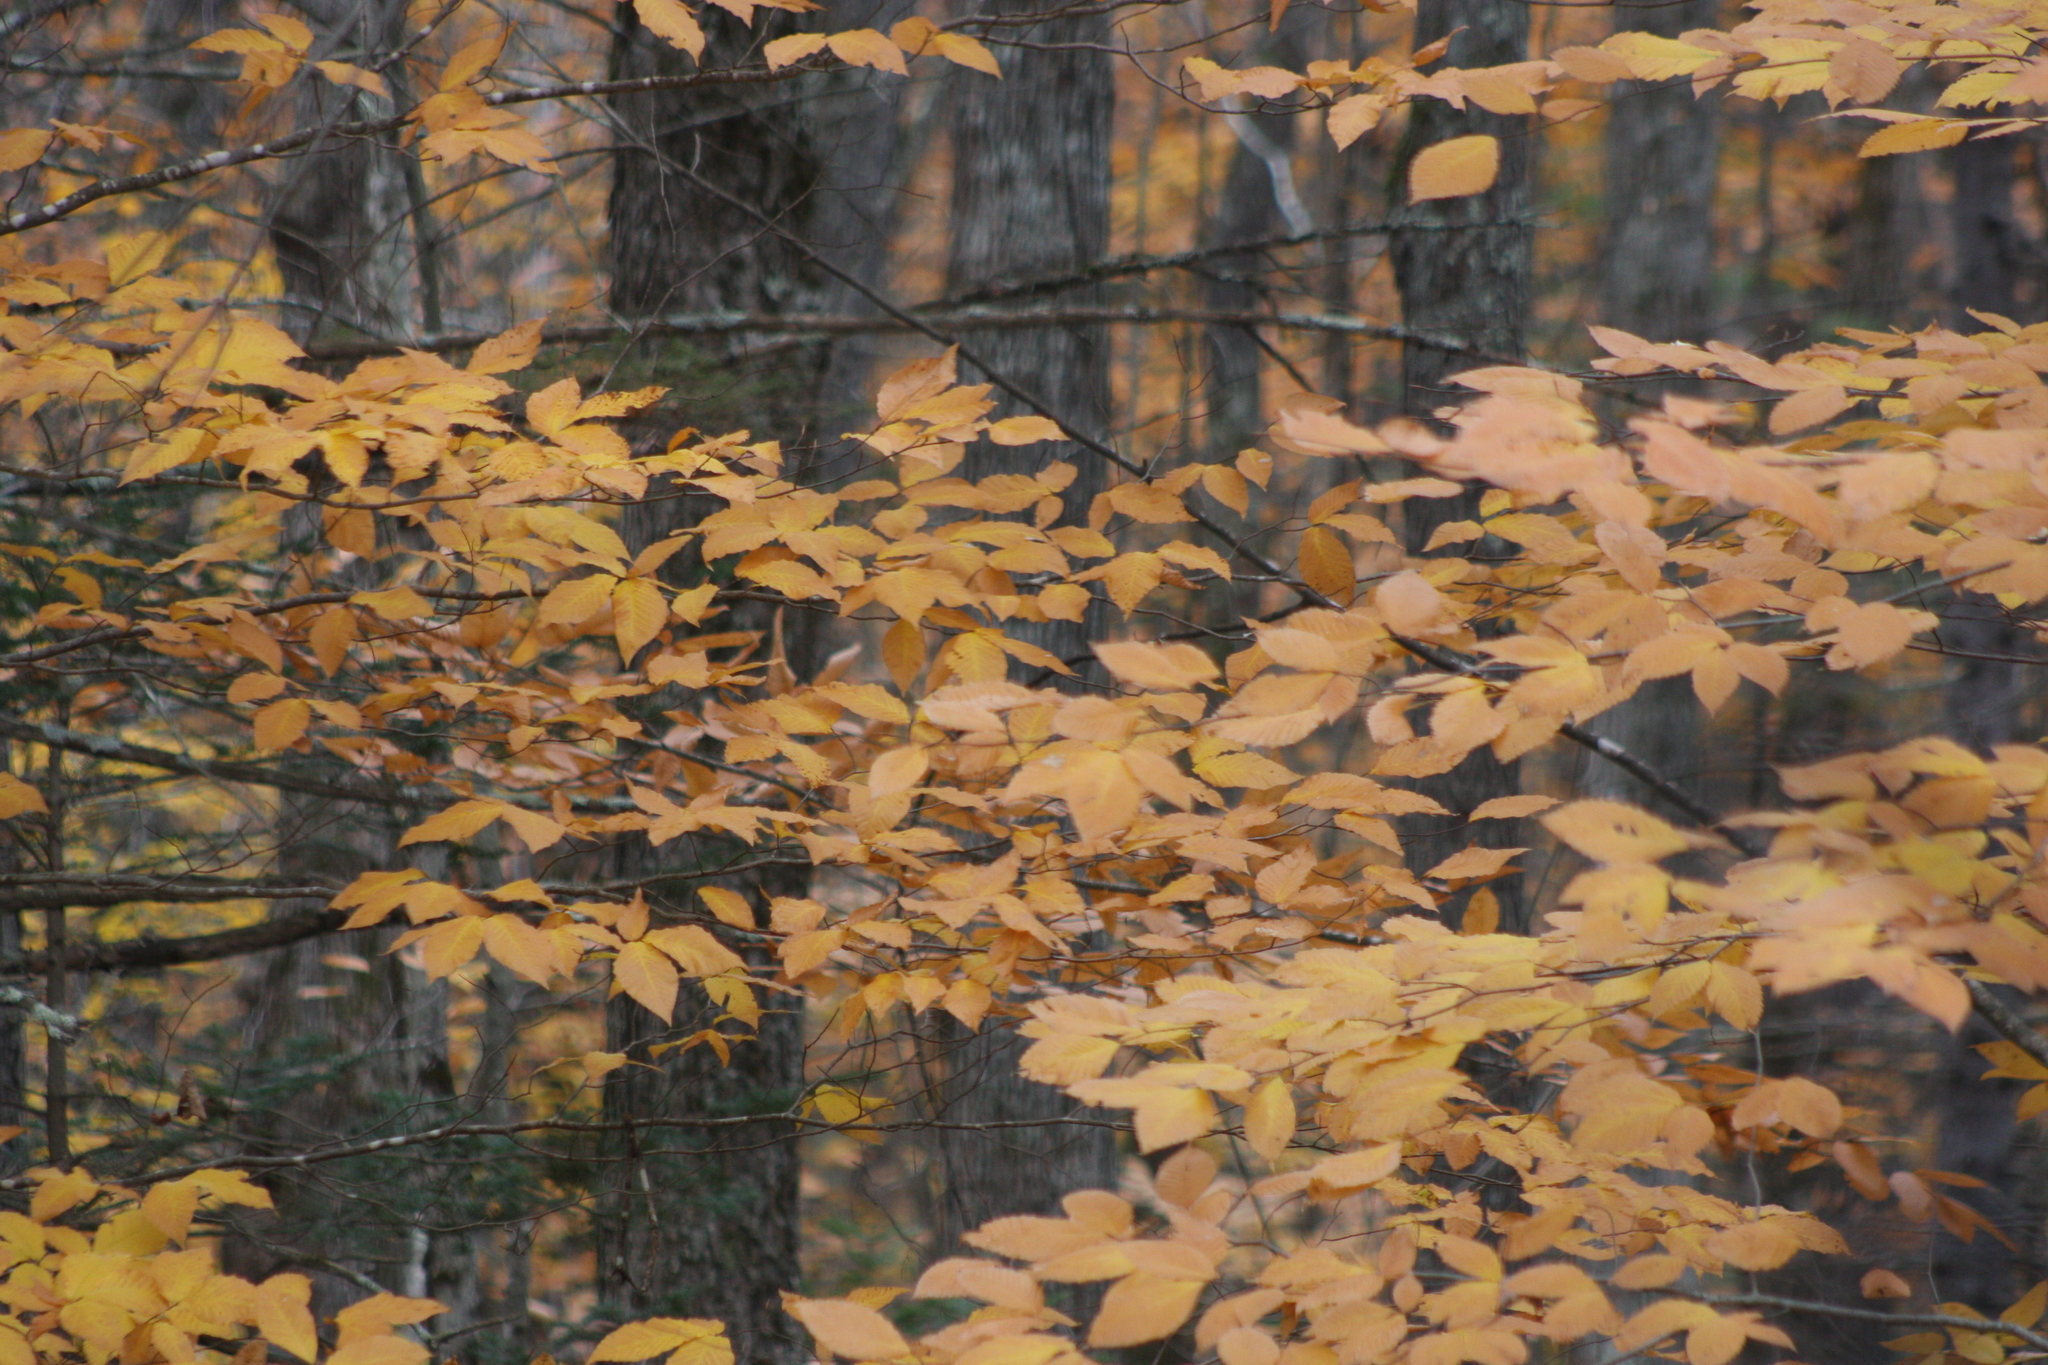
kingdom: Plantae
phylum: Tracheophyta
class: Magnoliopsida
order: Fagales
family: Fagaceae
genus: Fagus
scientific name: Fagus grandifolia
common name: American beech
